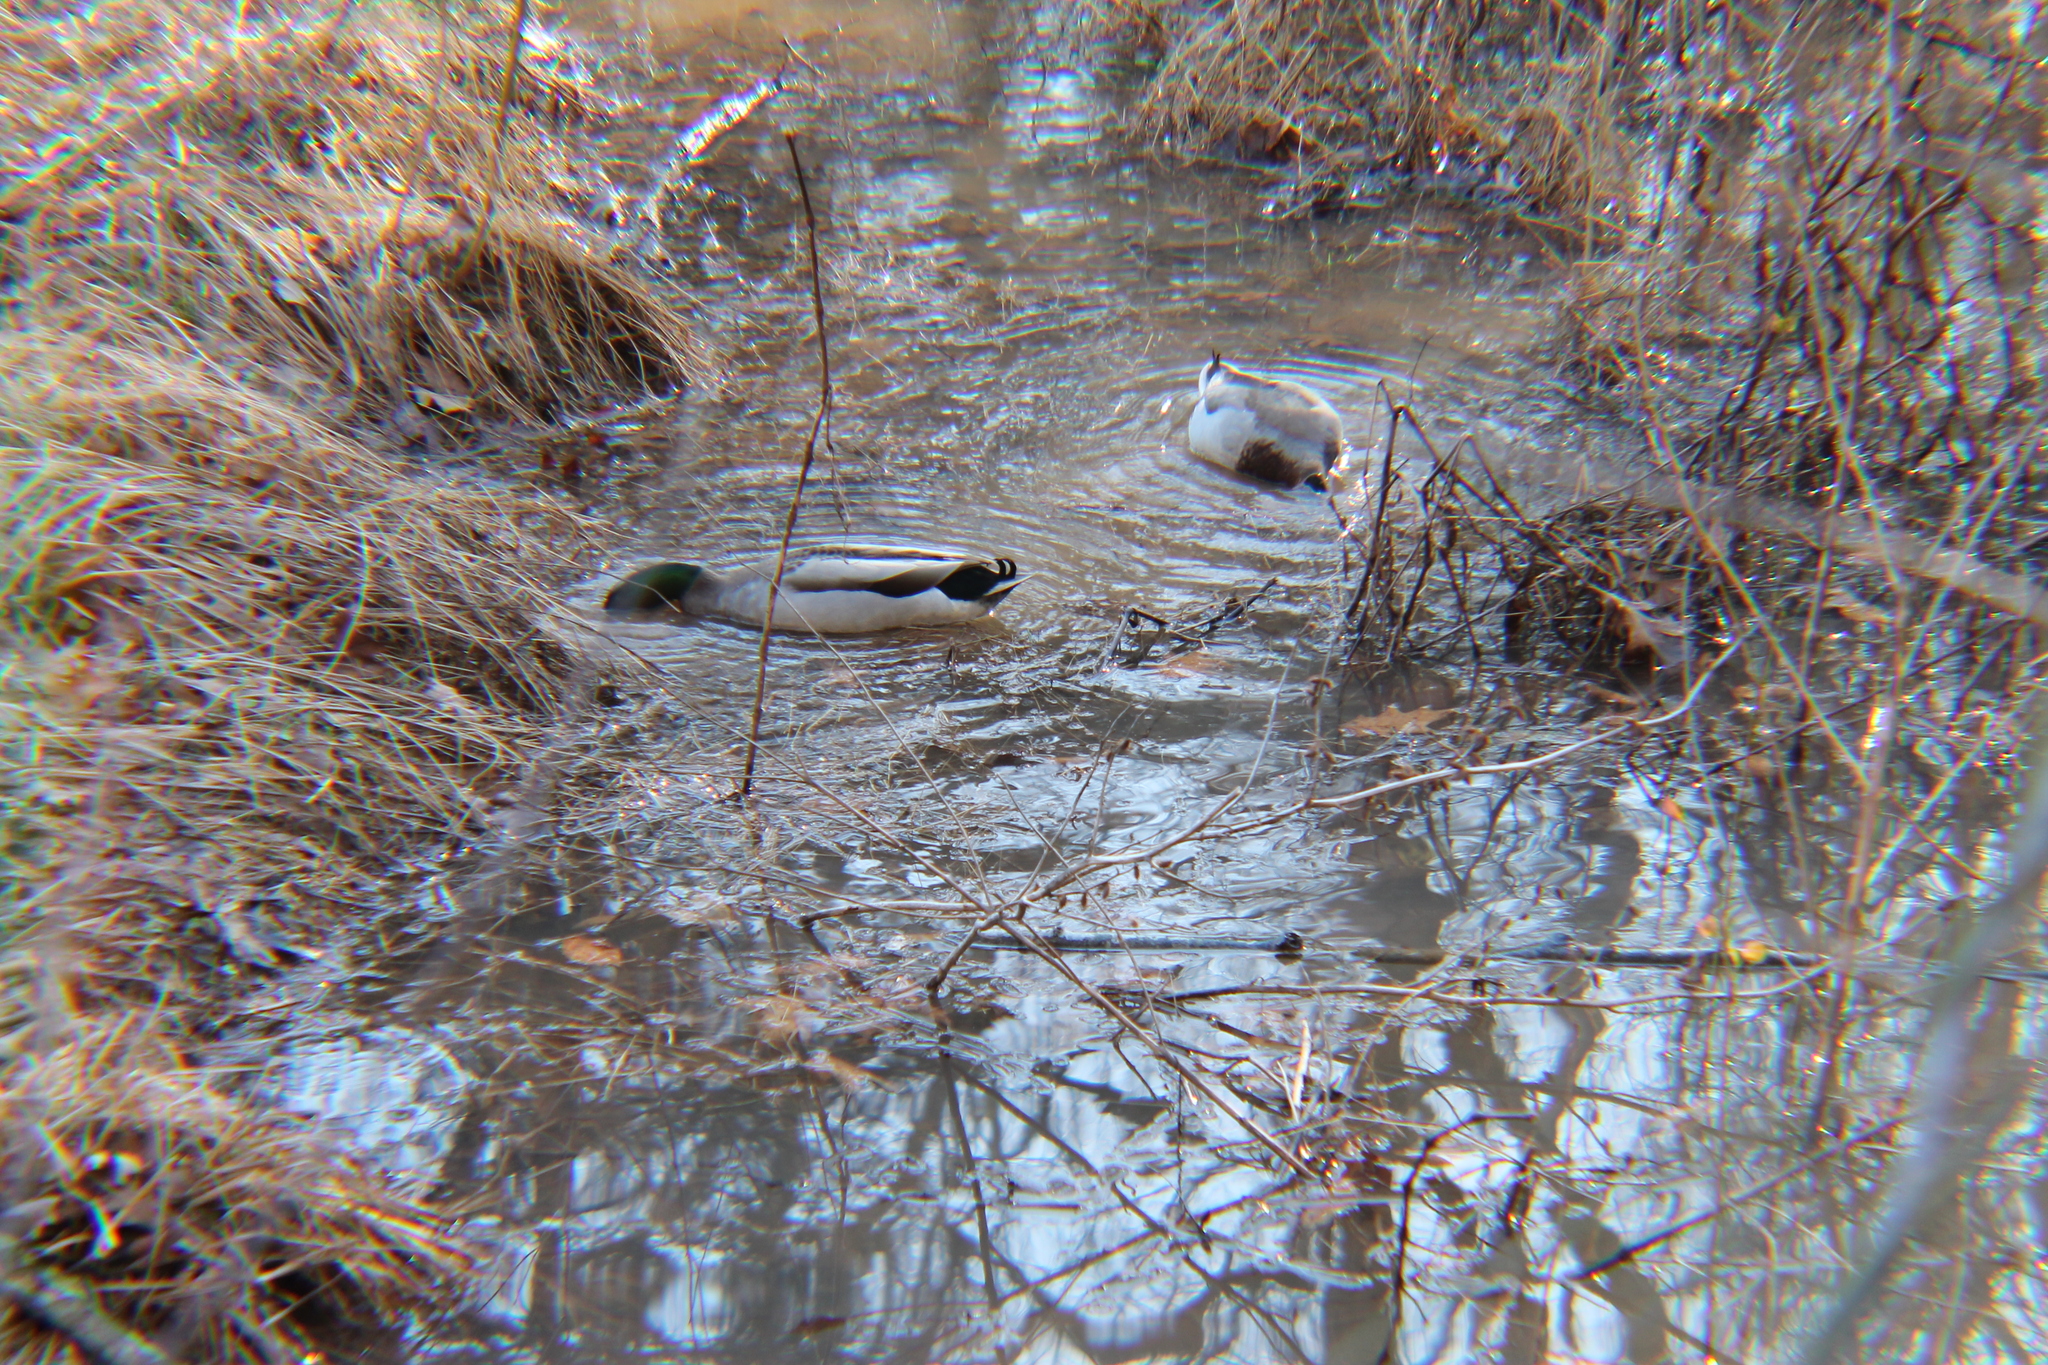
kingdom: Animalia
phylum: Chordata
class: Aves
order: Anseriformes
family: Anatidae
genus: Anas
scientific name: Anas platyrhynchos
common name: Mallard
